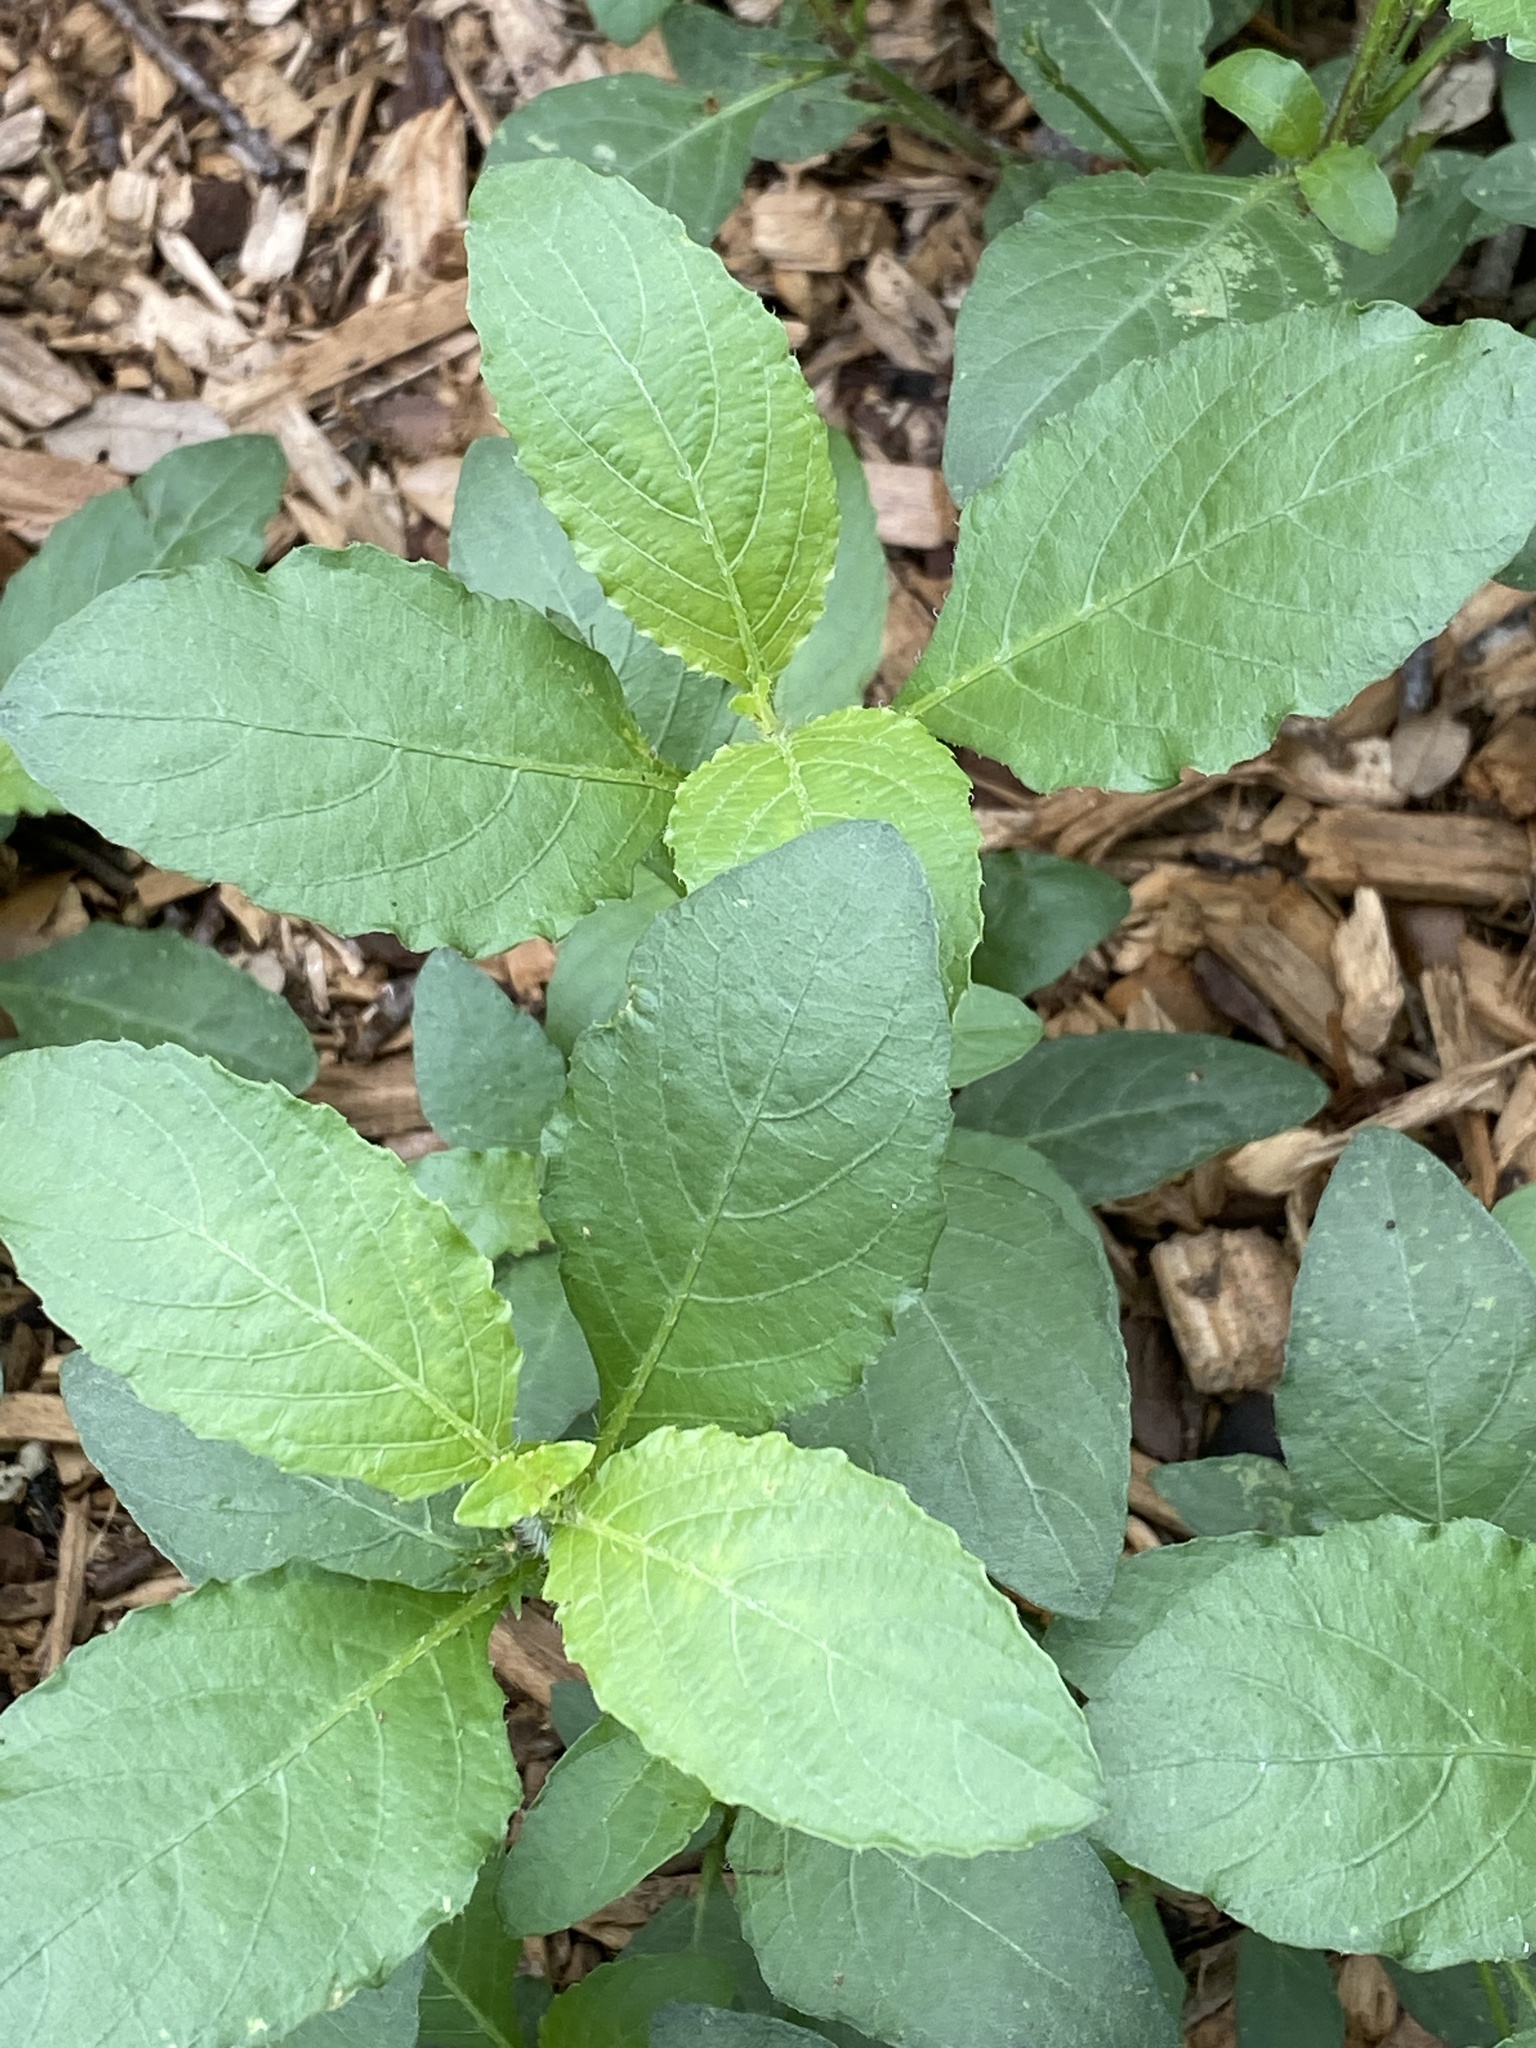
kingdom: Plantae
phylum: Tracheophyta
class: Magnoliopsida
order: Lamiales
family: Acanthaceae
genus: Ruellia
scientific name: Ruellia ciliatiflora
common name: Hairyflower wild petunia
